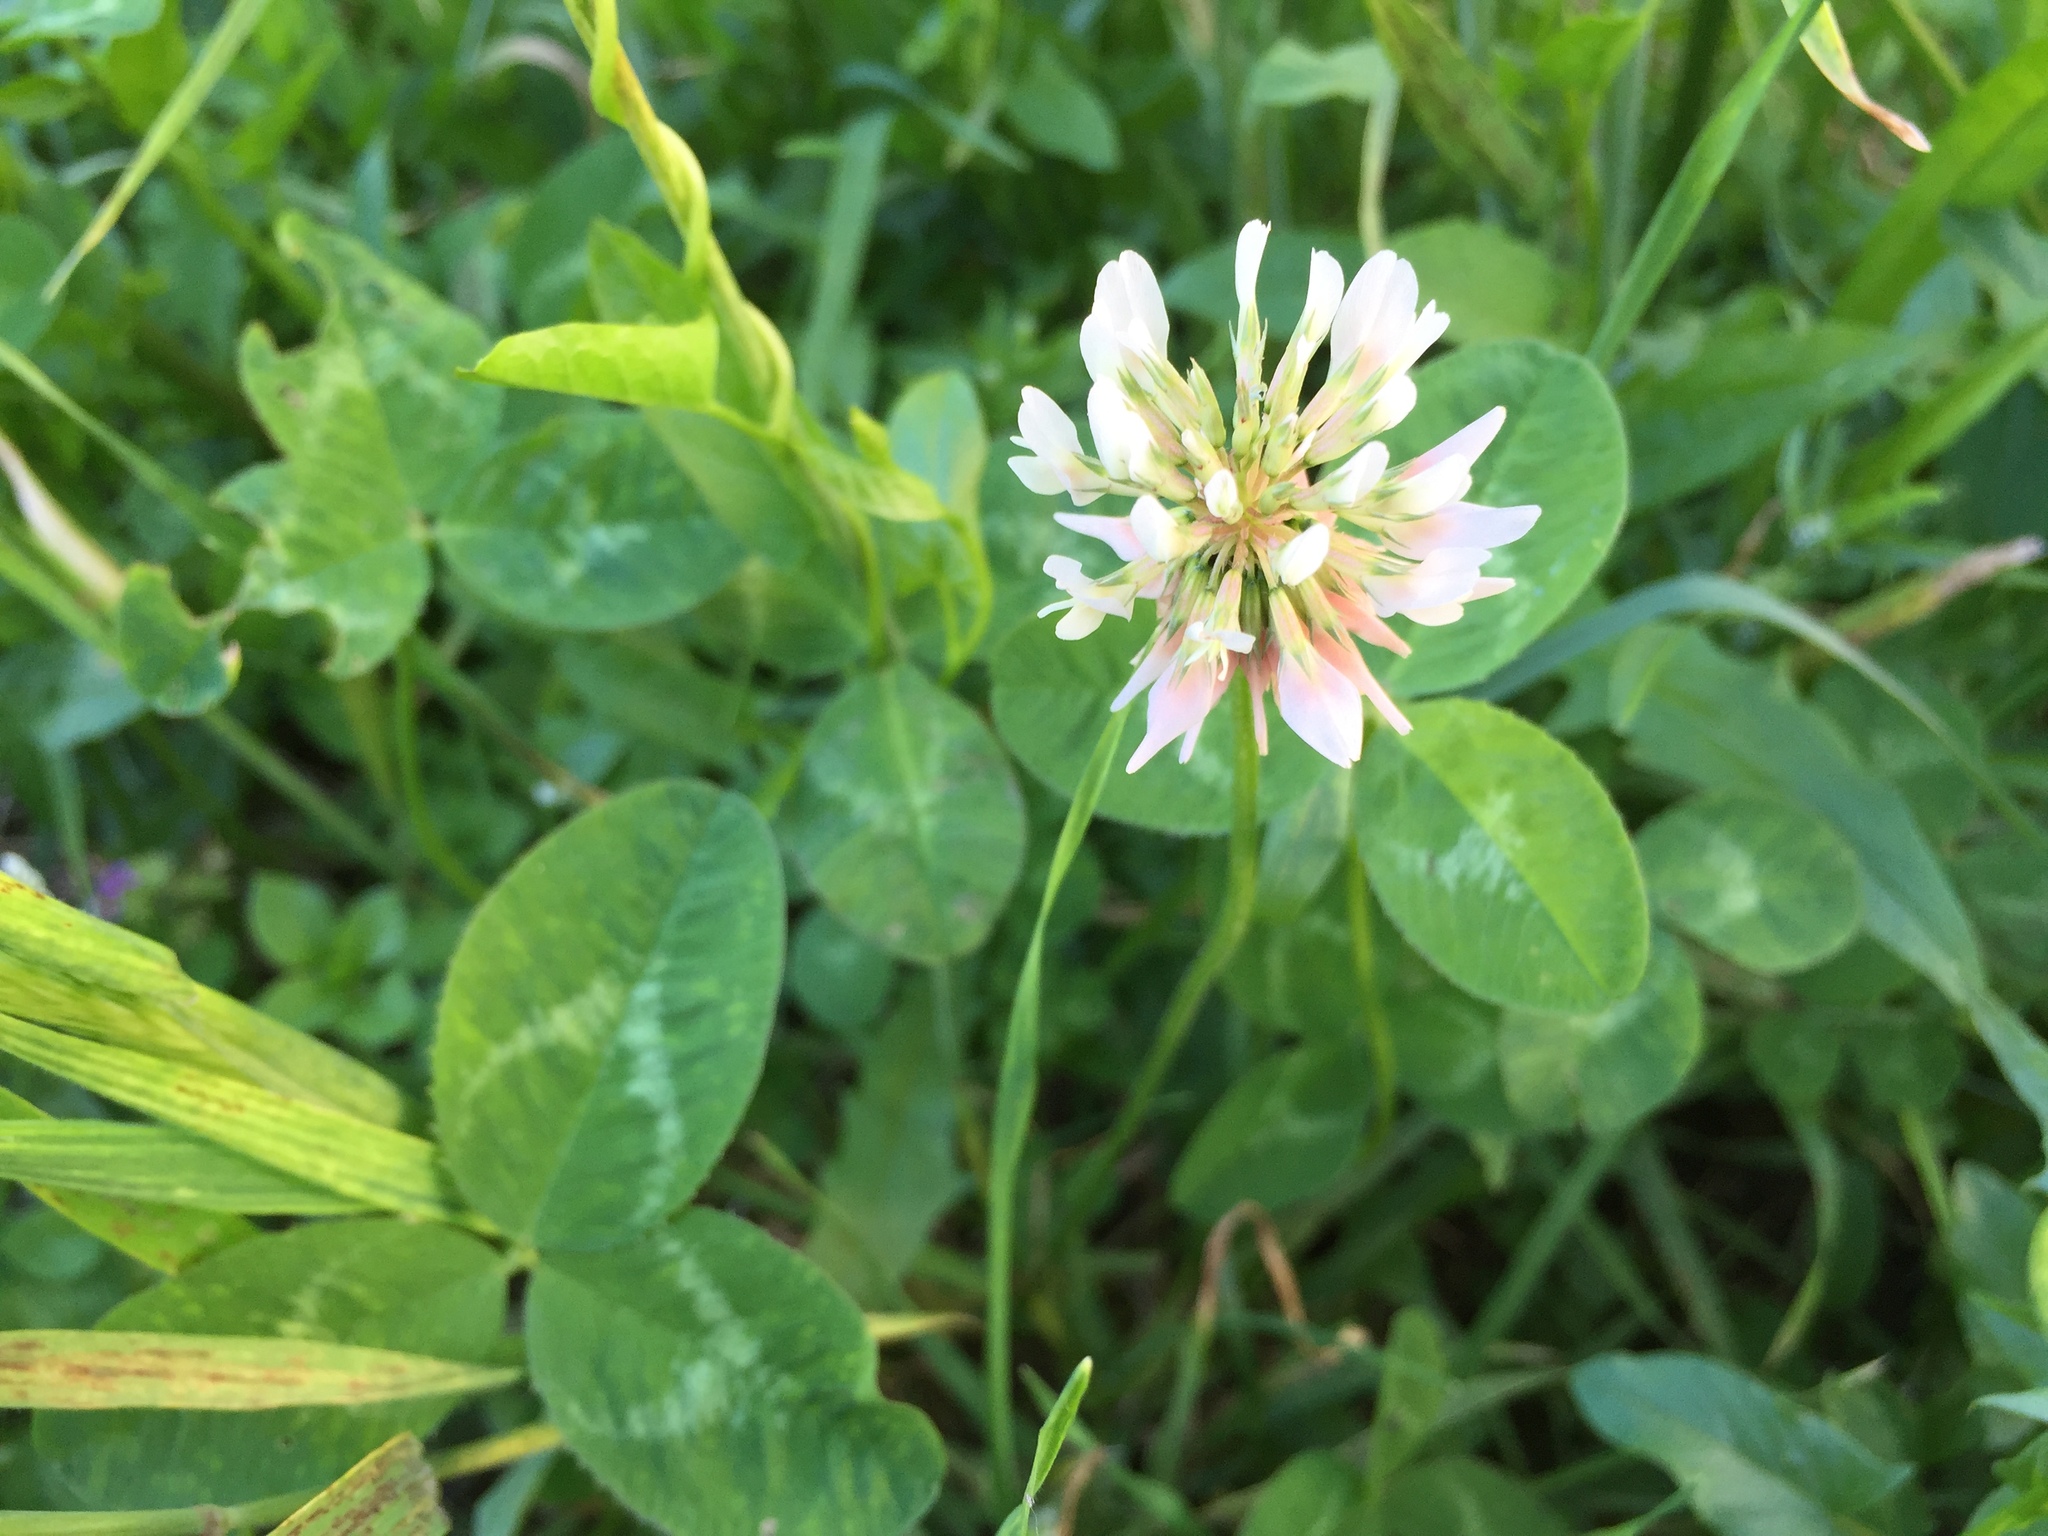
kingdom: Plantae
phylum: Tracheophyta
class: Magnoliopsida
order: Fabales
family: Fabaceae
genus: Trifolium
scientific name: Trifolium repens
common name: White clover
